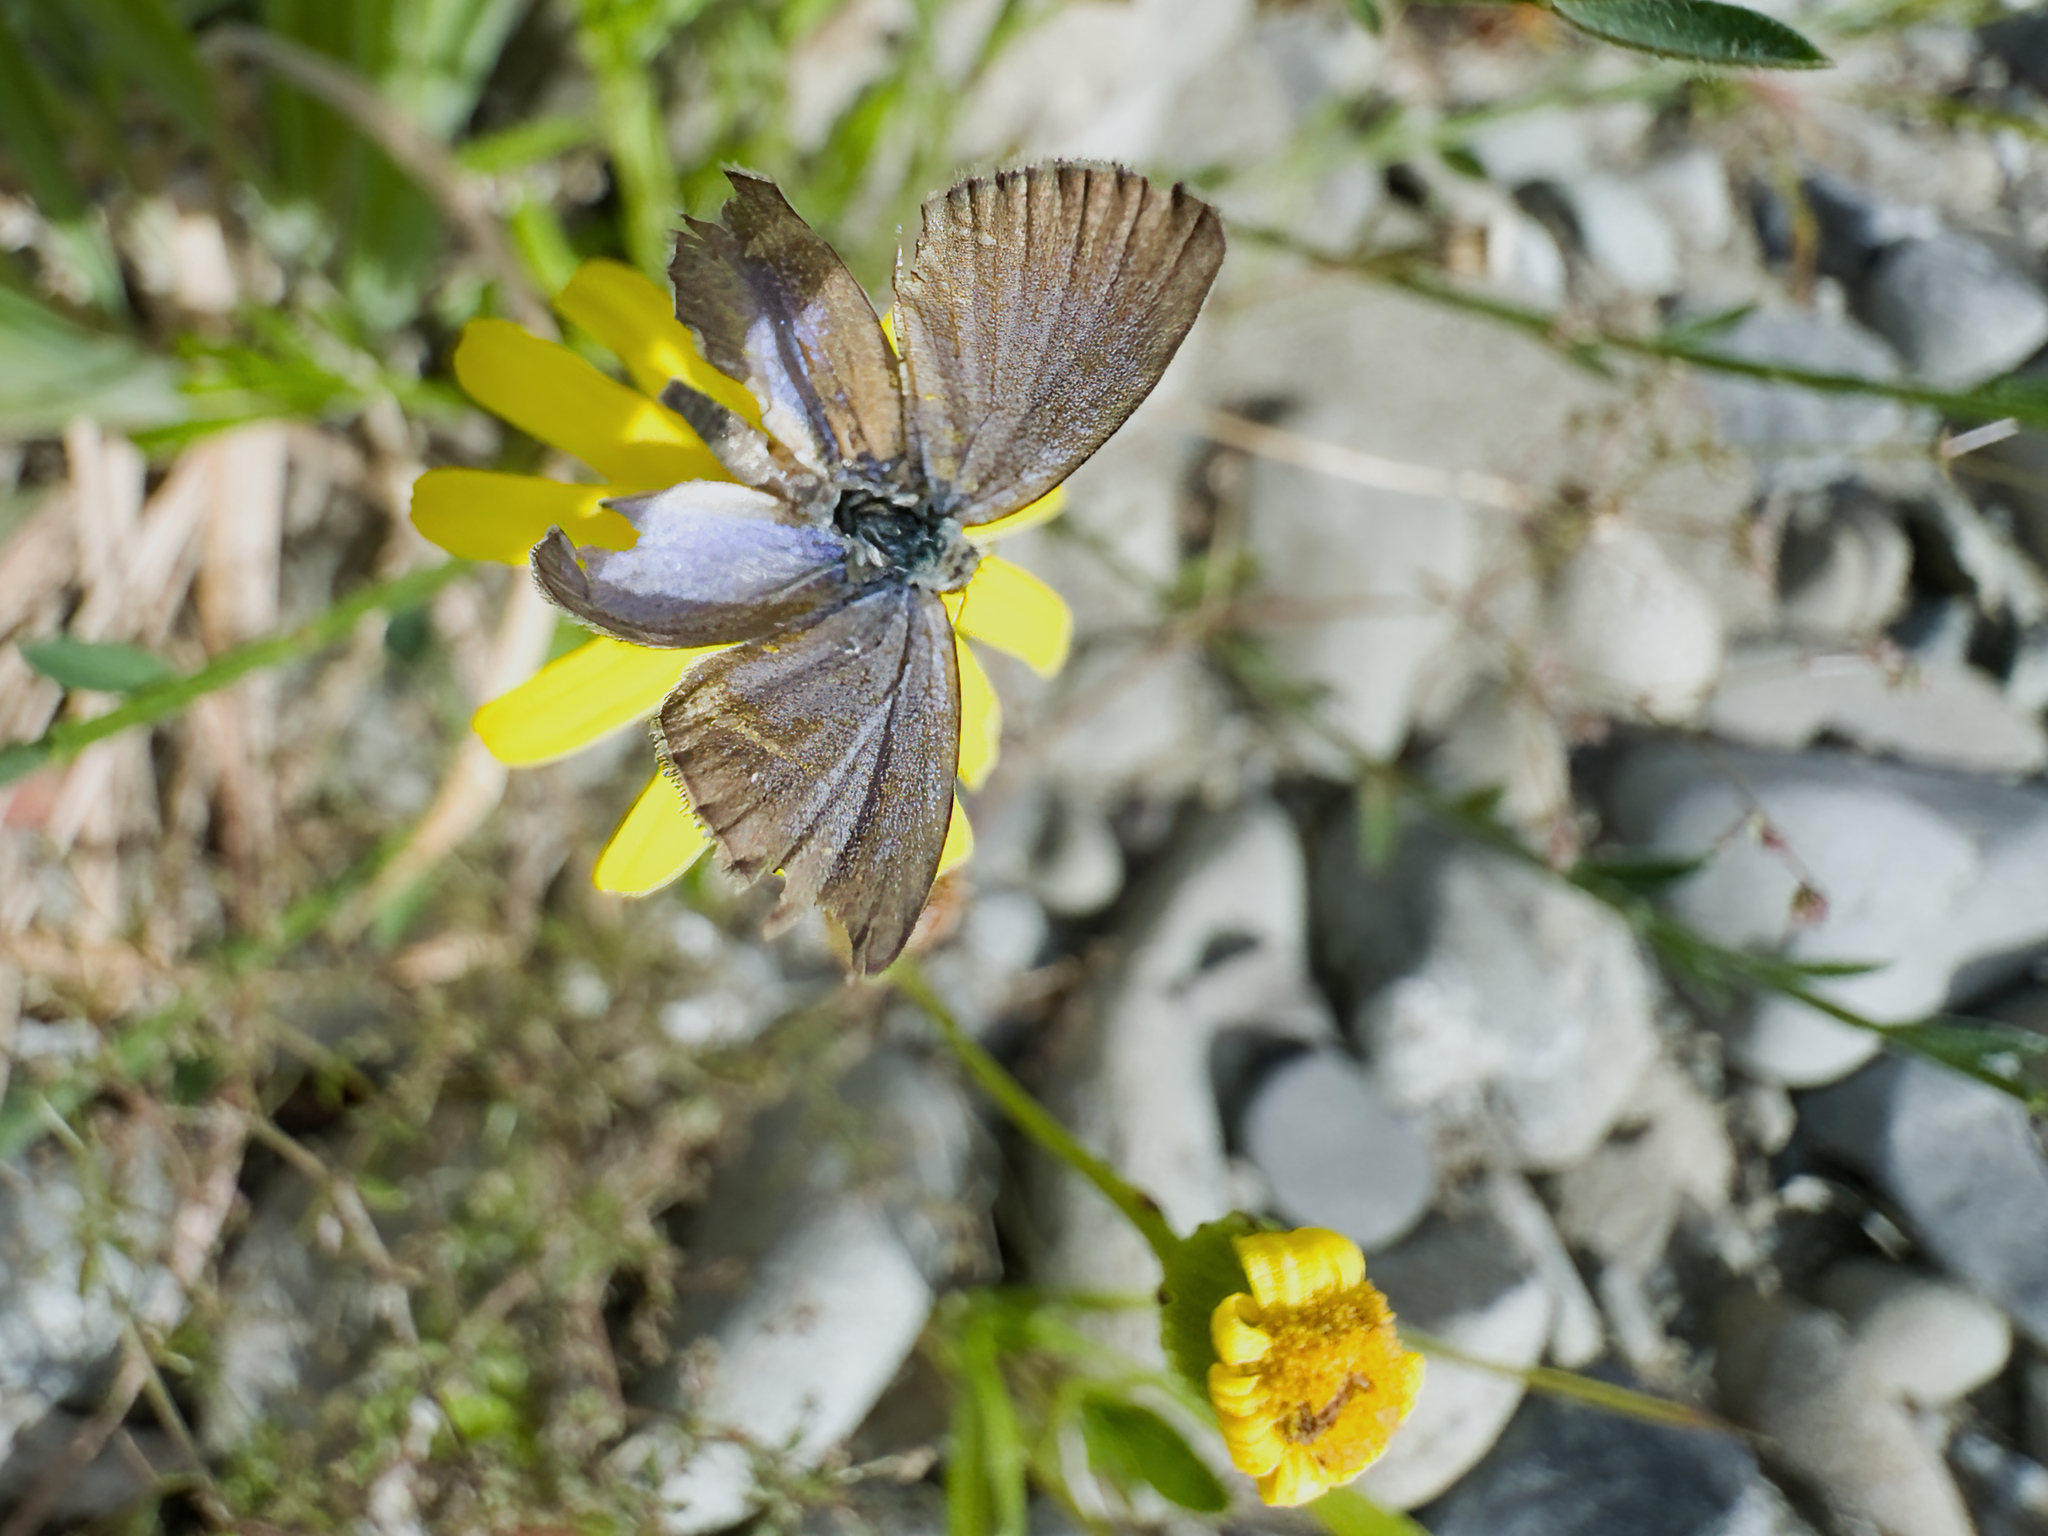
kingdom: Animalia
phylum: Arthropoda
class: Insecta
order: Lepidoptera
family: Lycaenidae
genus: Zizina
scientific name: Zizina labradus
